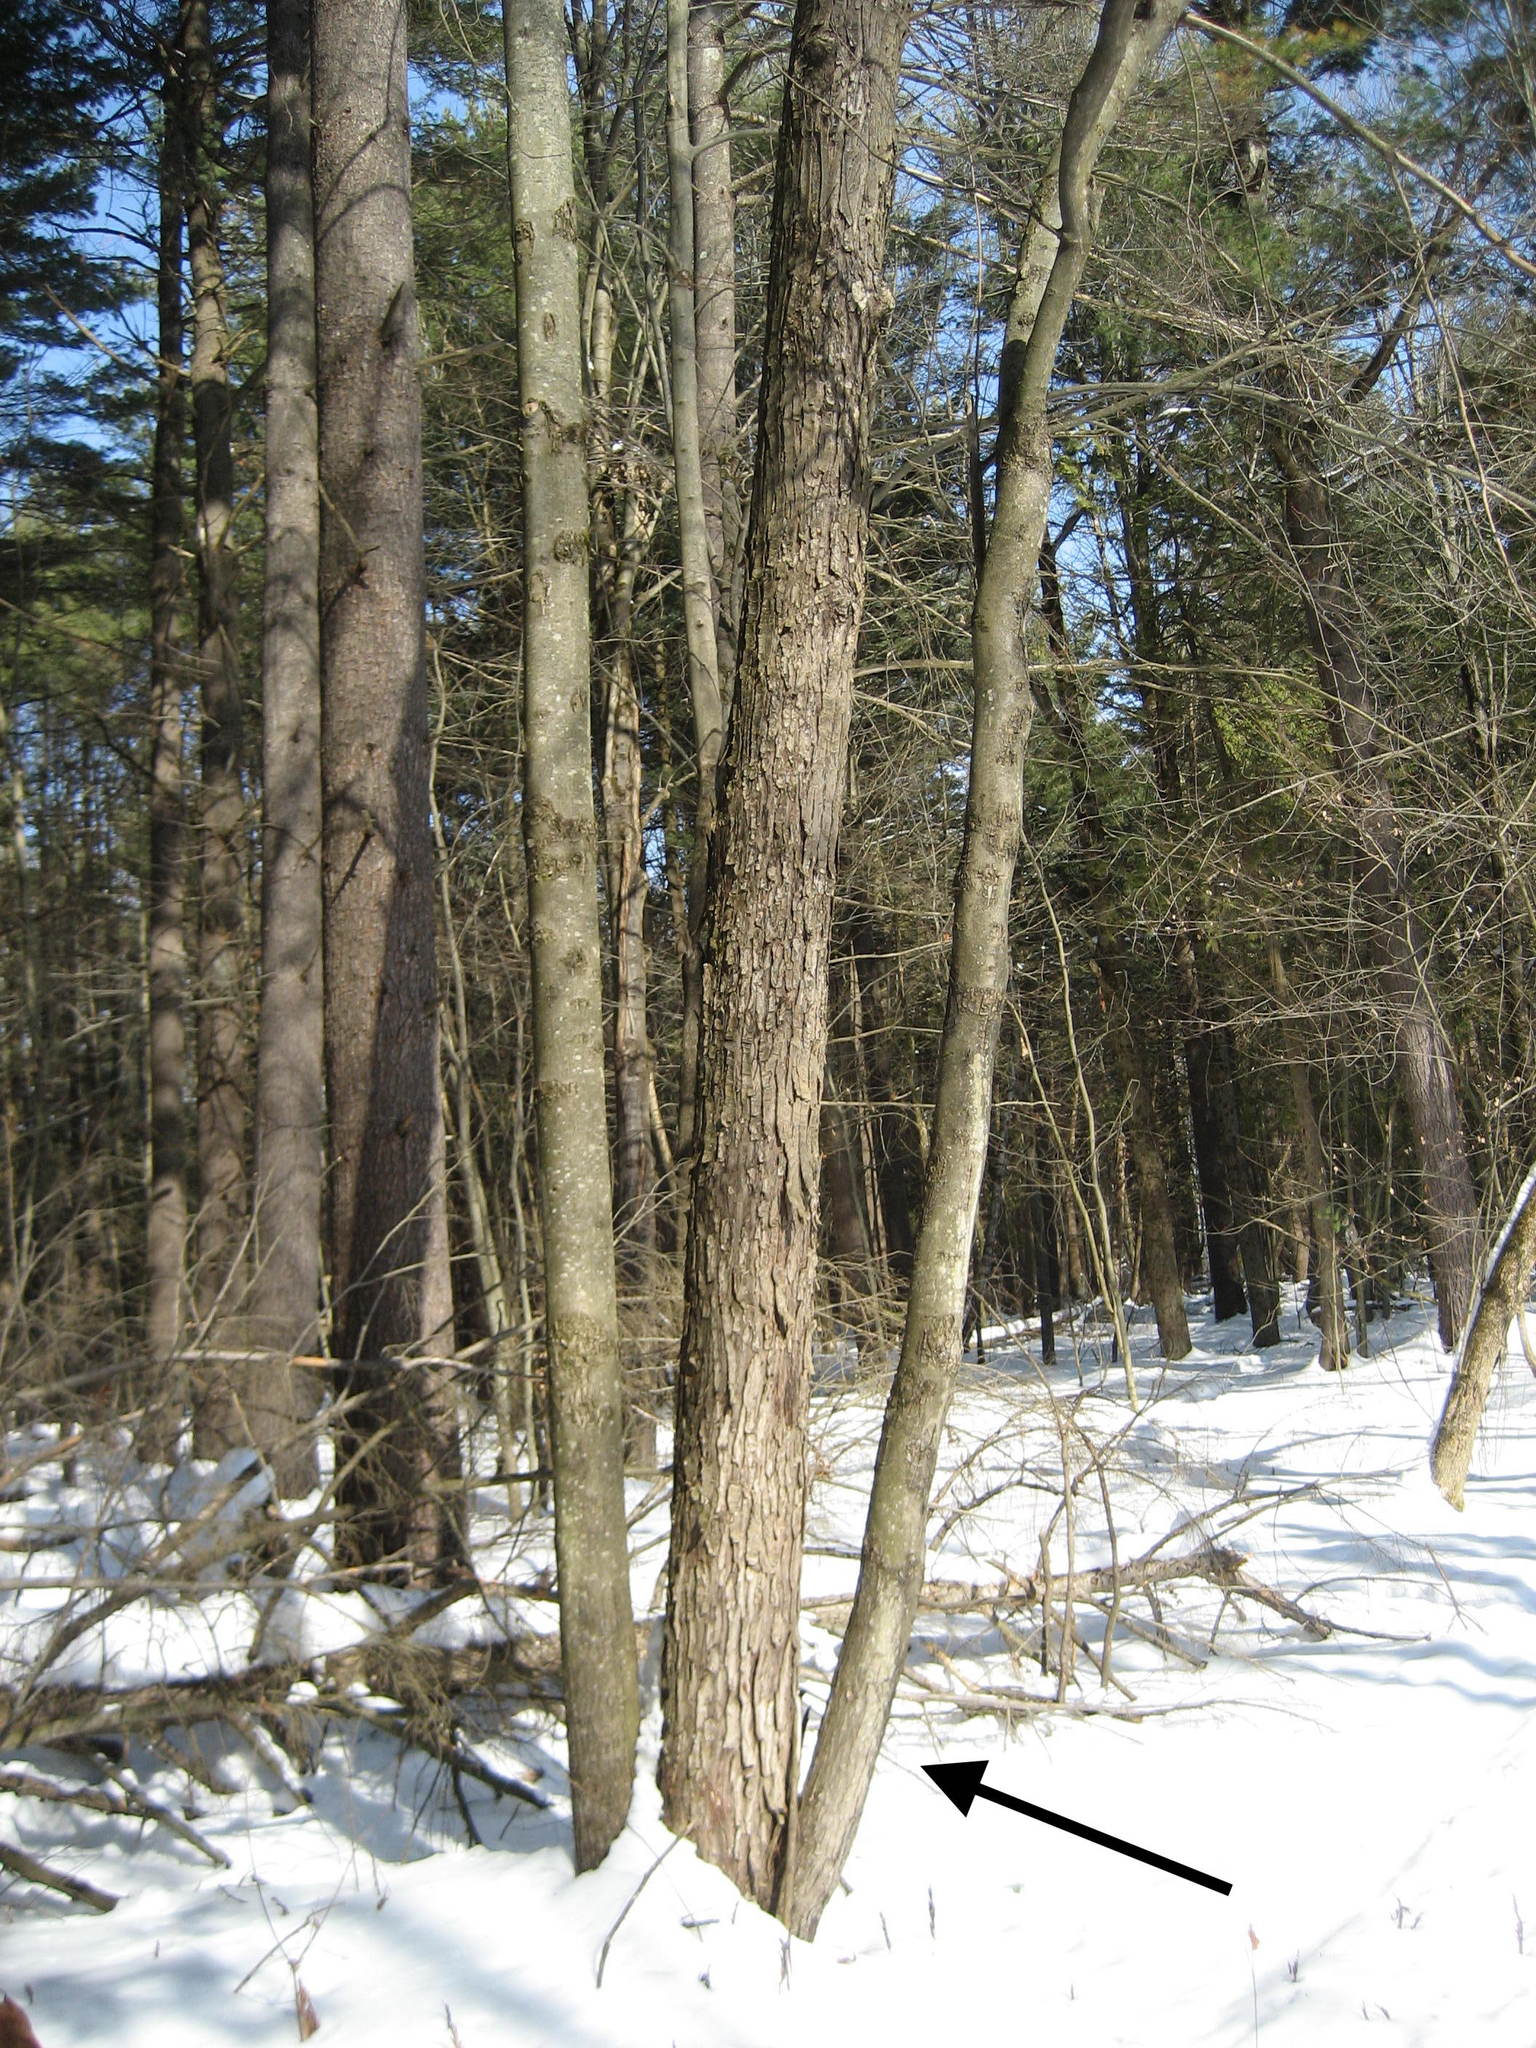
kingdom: Plantae
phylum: Tracheophyta
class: Magnoliopsida
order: Sapindales
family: Sapindaceae
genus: Acer
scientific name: Acer rubrum
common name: Red maple
